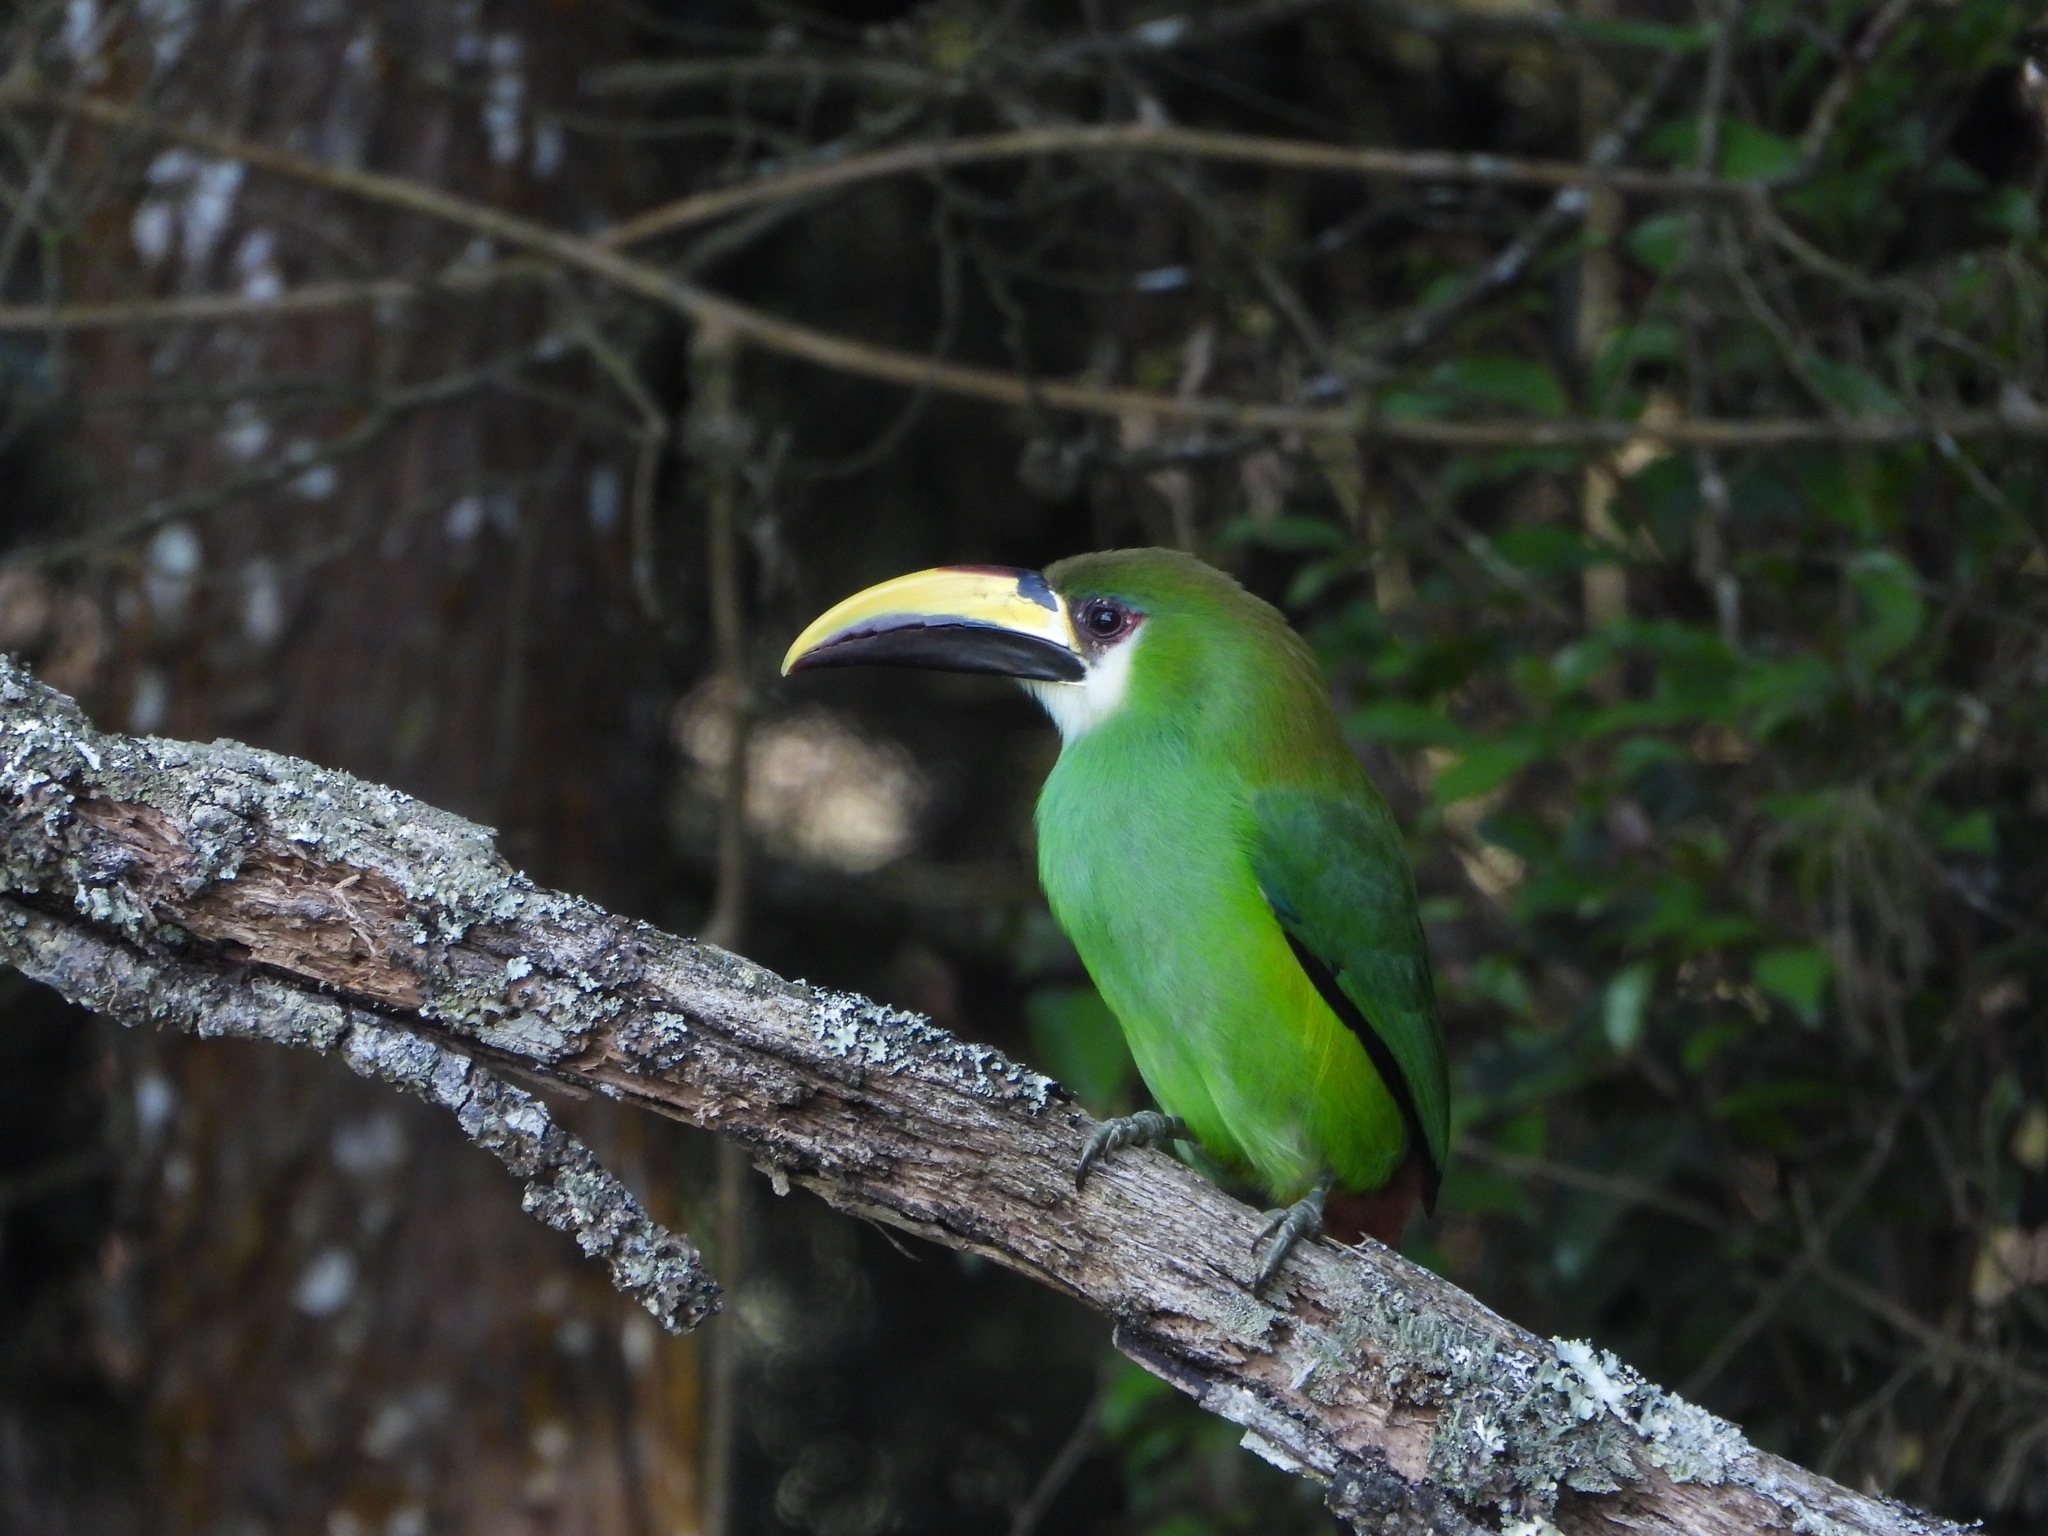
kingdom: Animalia
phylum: Chordata
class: Aves
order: Piciformes
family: Ramphastidae
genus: Aulacorhynchus
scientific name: Aulacorhynchus prasinus
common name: Emerald toucanet
